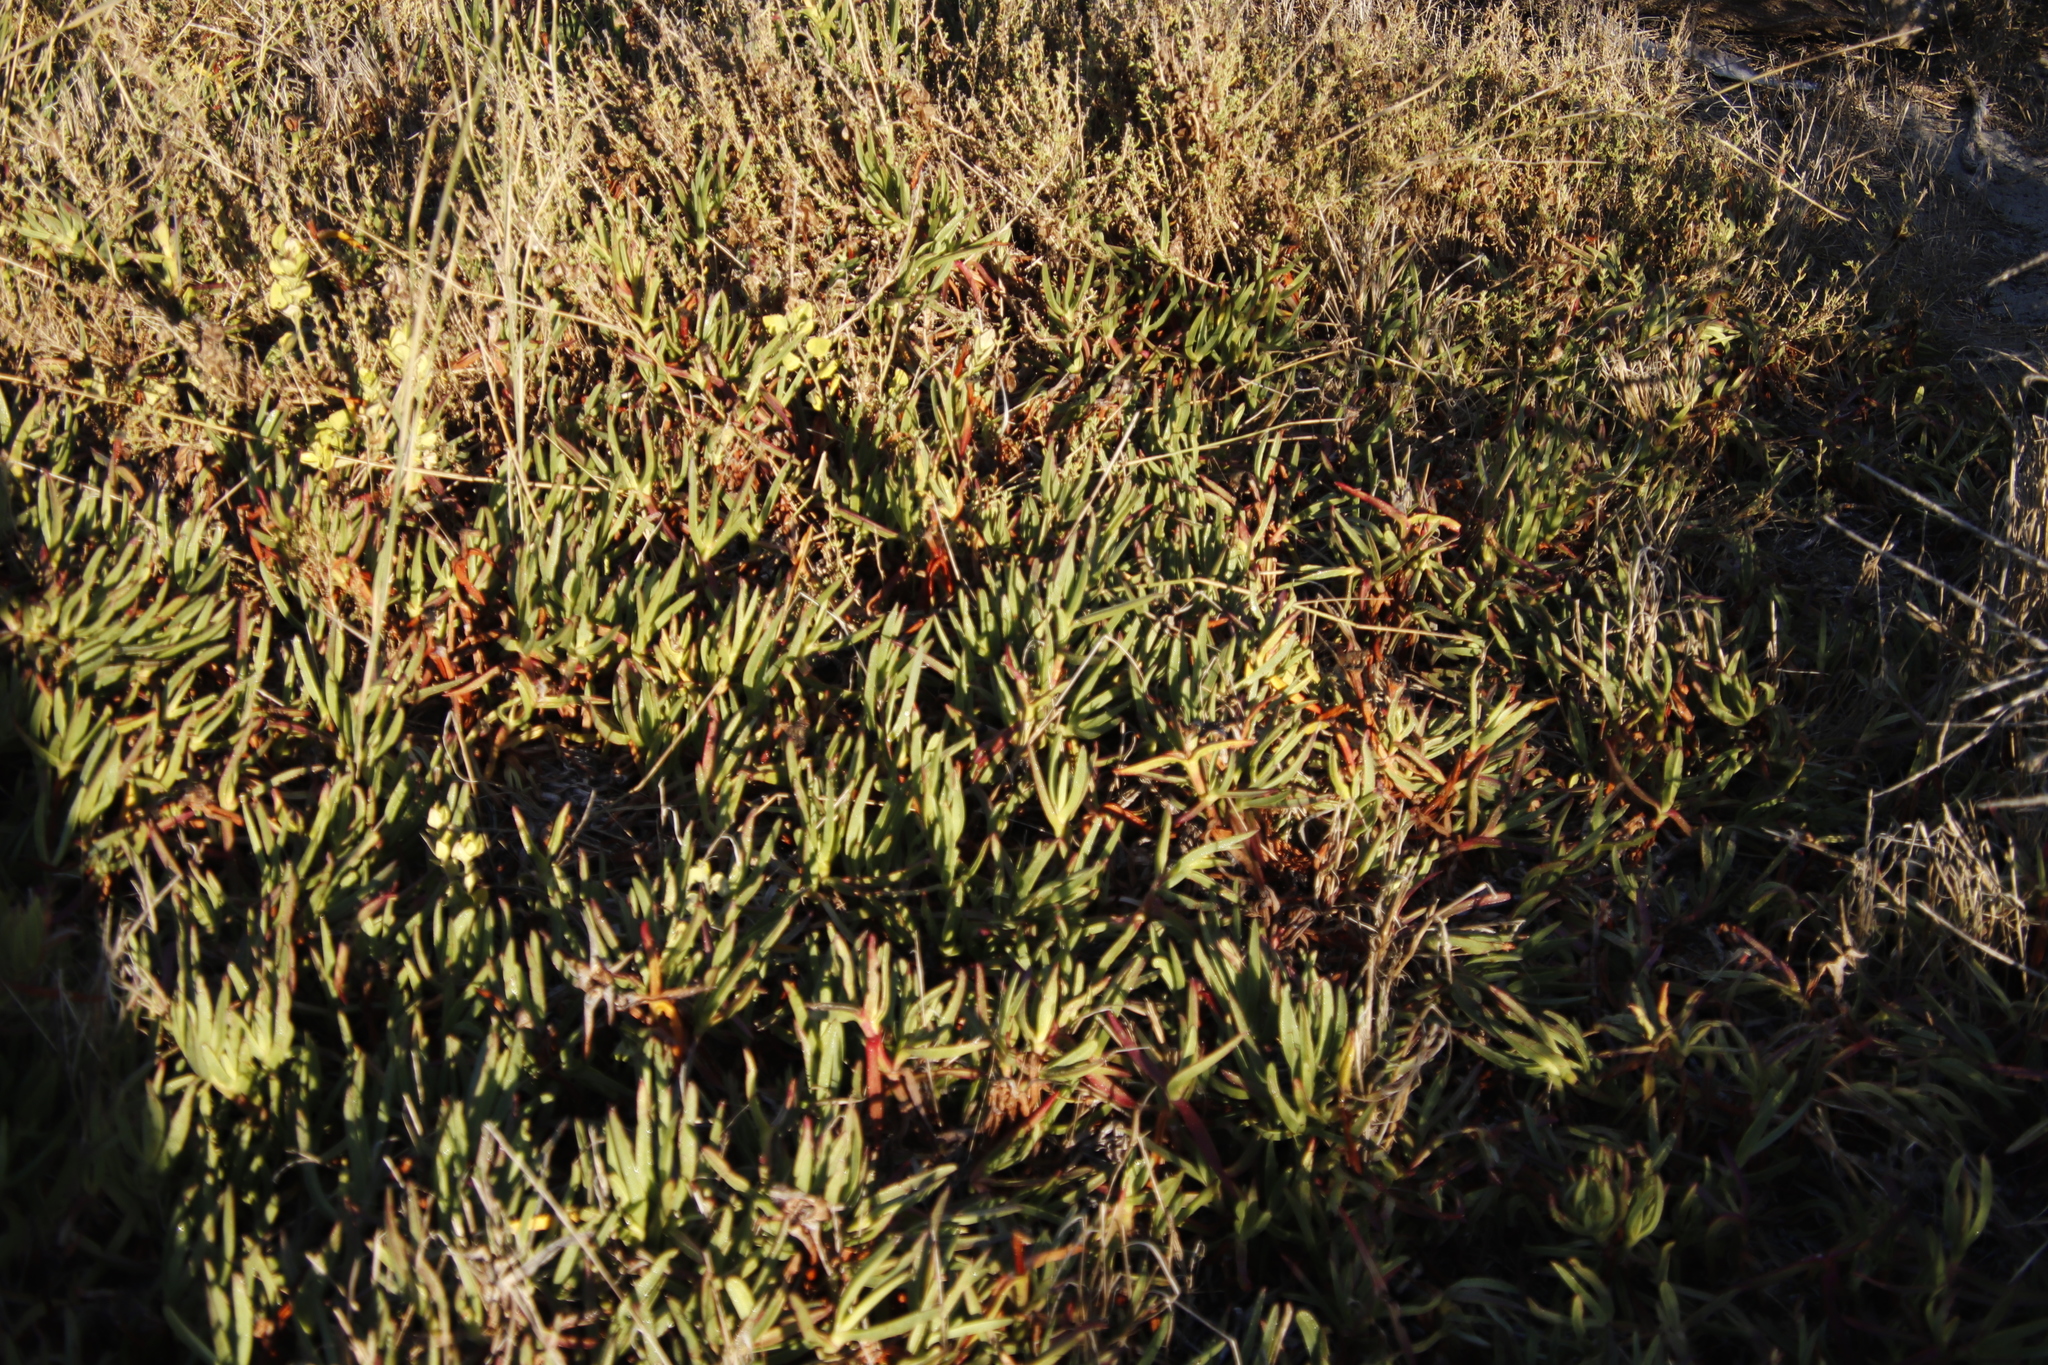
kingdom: Plantae
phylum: Tracheophyta
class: Magnoliopsida
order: Caryophyllales
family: Aizoaceae
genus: Carpobrotus
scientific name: Carpobrotus edulis
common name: Hottentot-fig
